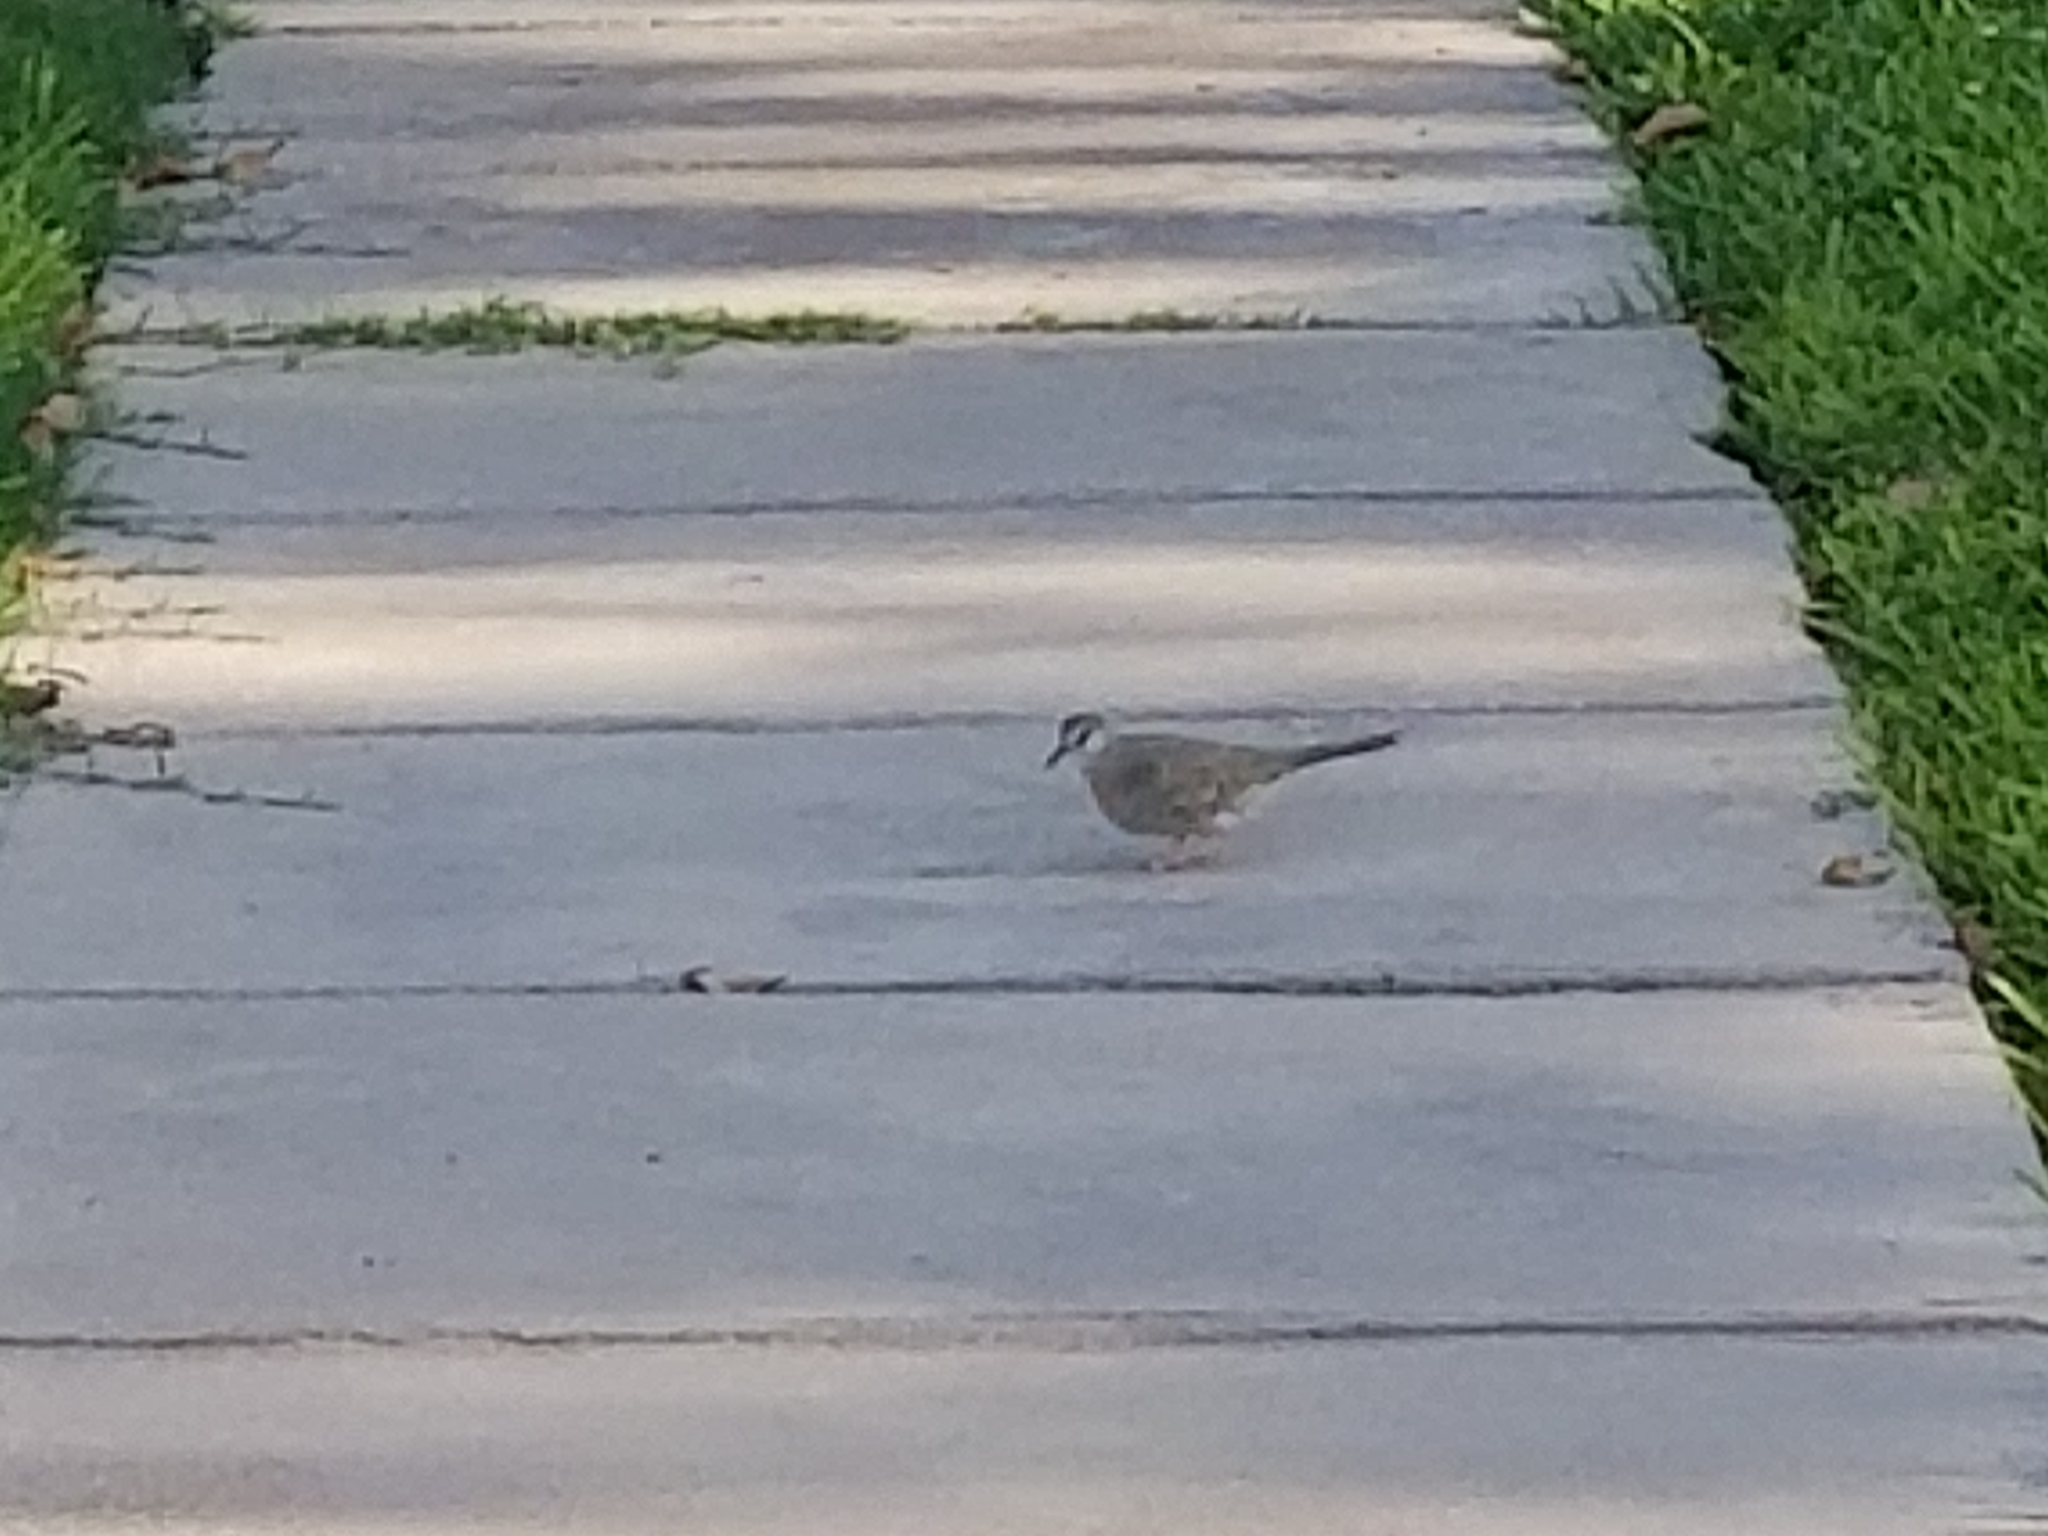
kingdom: Animalia
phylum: Chordata
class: Aves
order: Columbiformes
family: Columbidae
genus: Columbina
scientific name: Columbina inca
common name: Inca dove
